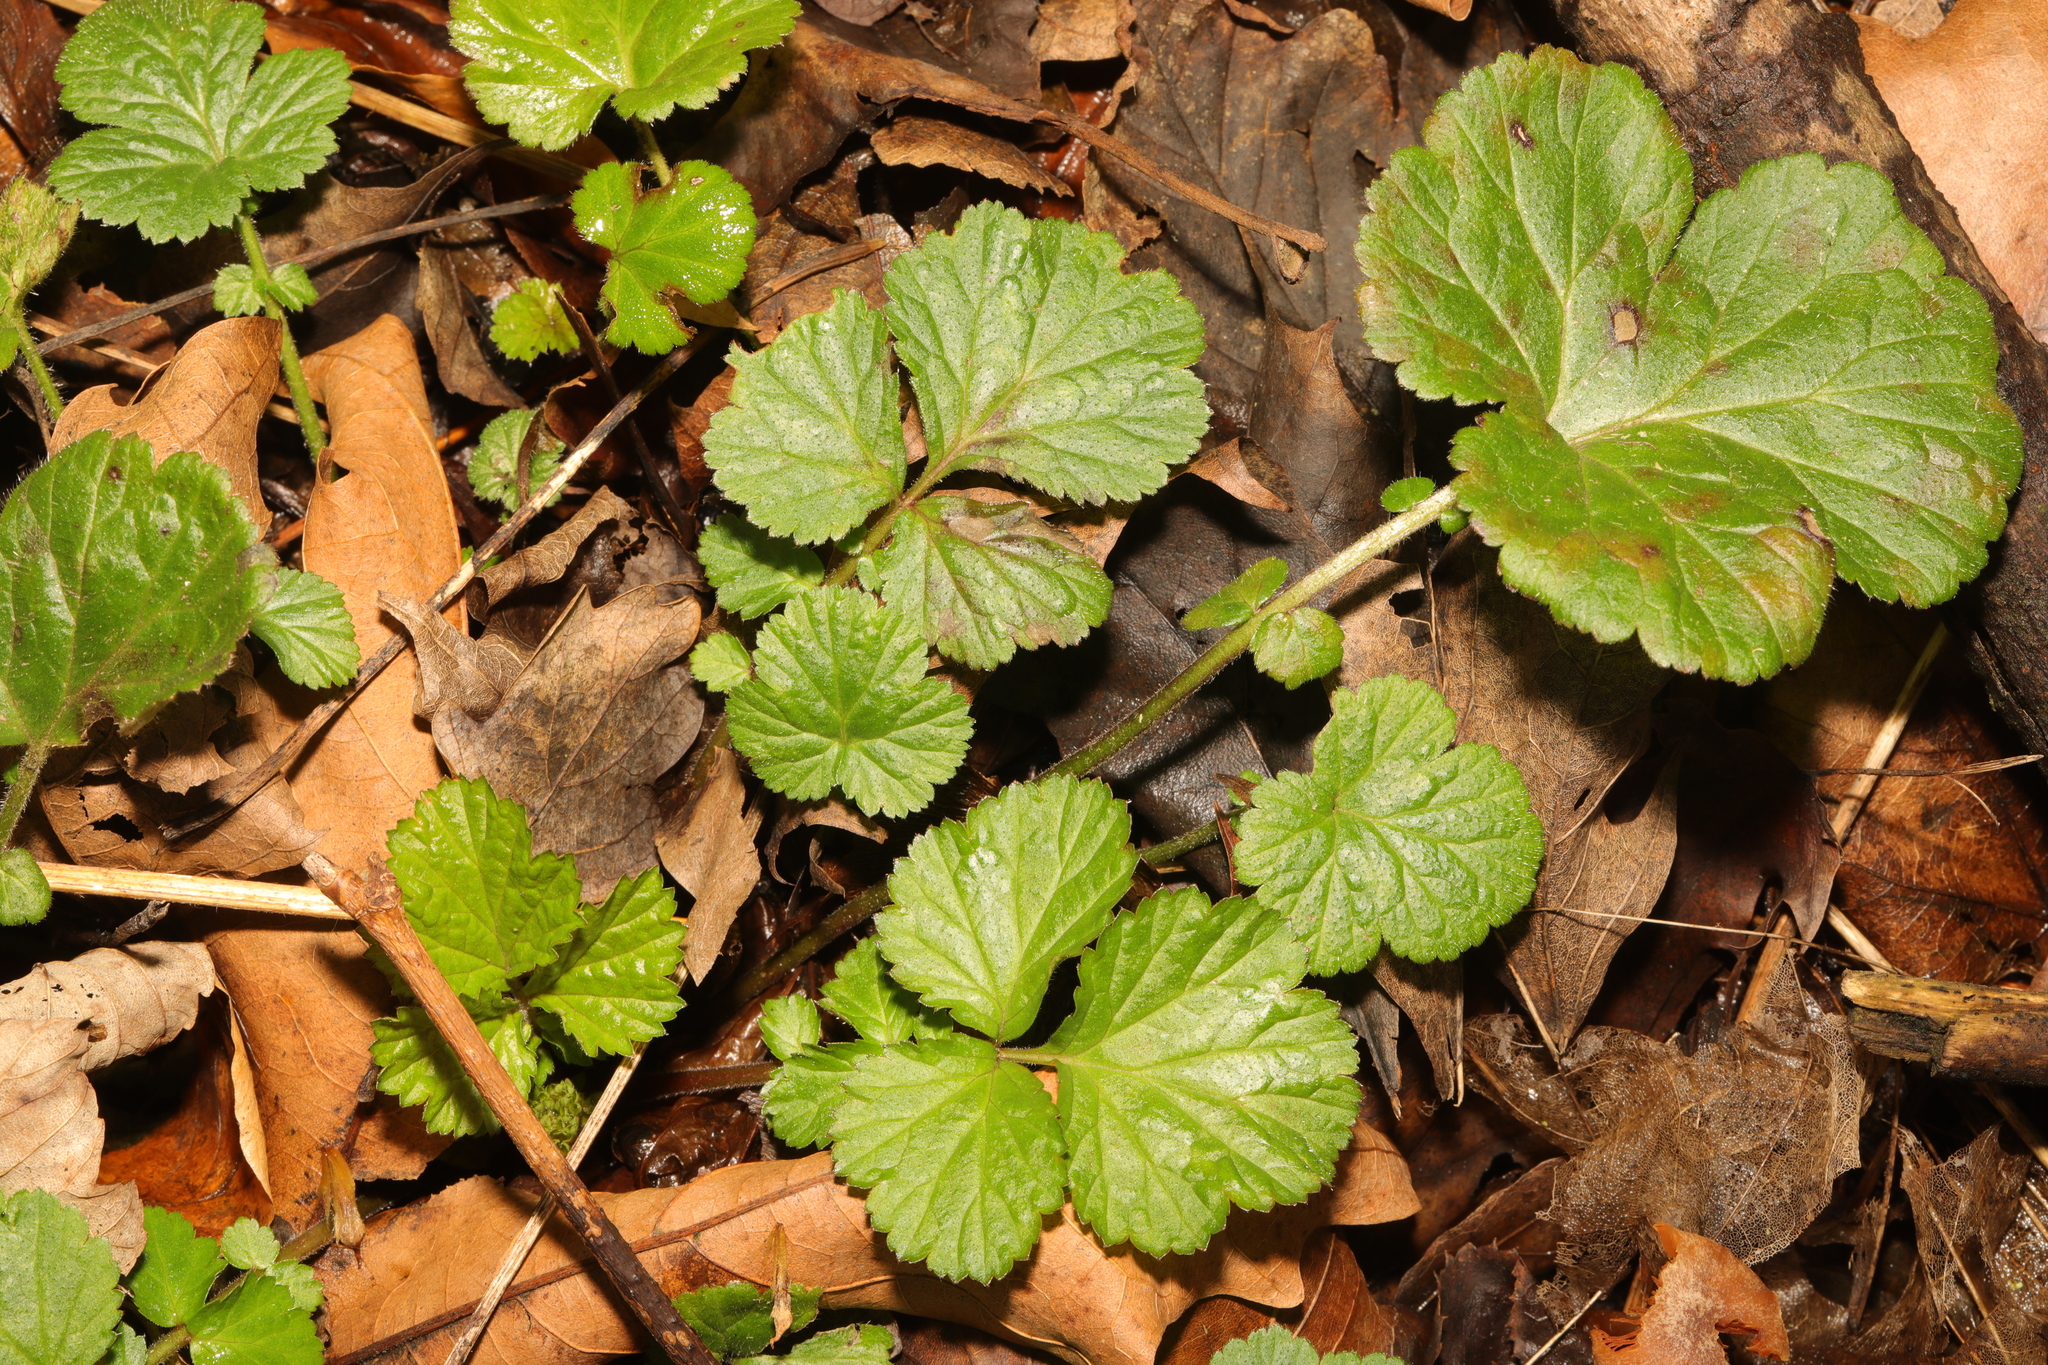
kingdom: Plantae
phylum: Tracheophyta
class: Magnoliopsida
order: Rosales
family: Rosaceae
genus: Geum
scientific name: Geum urbanum
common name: Wood avens
